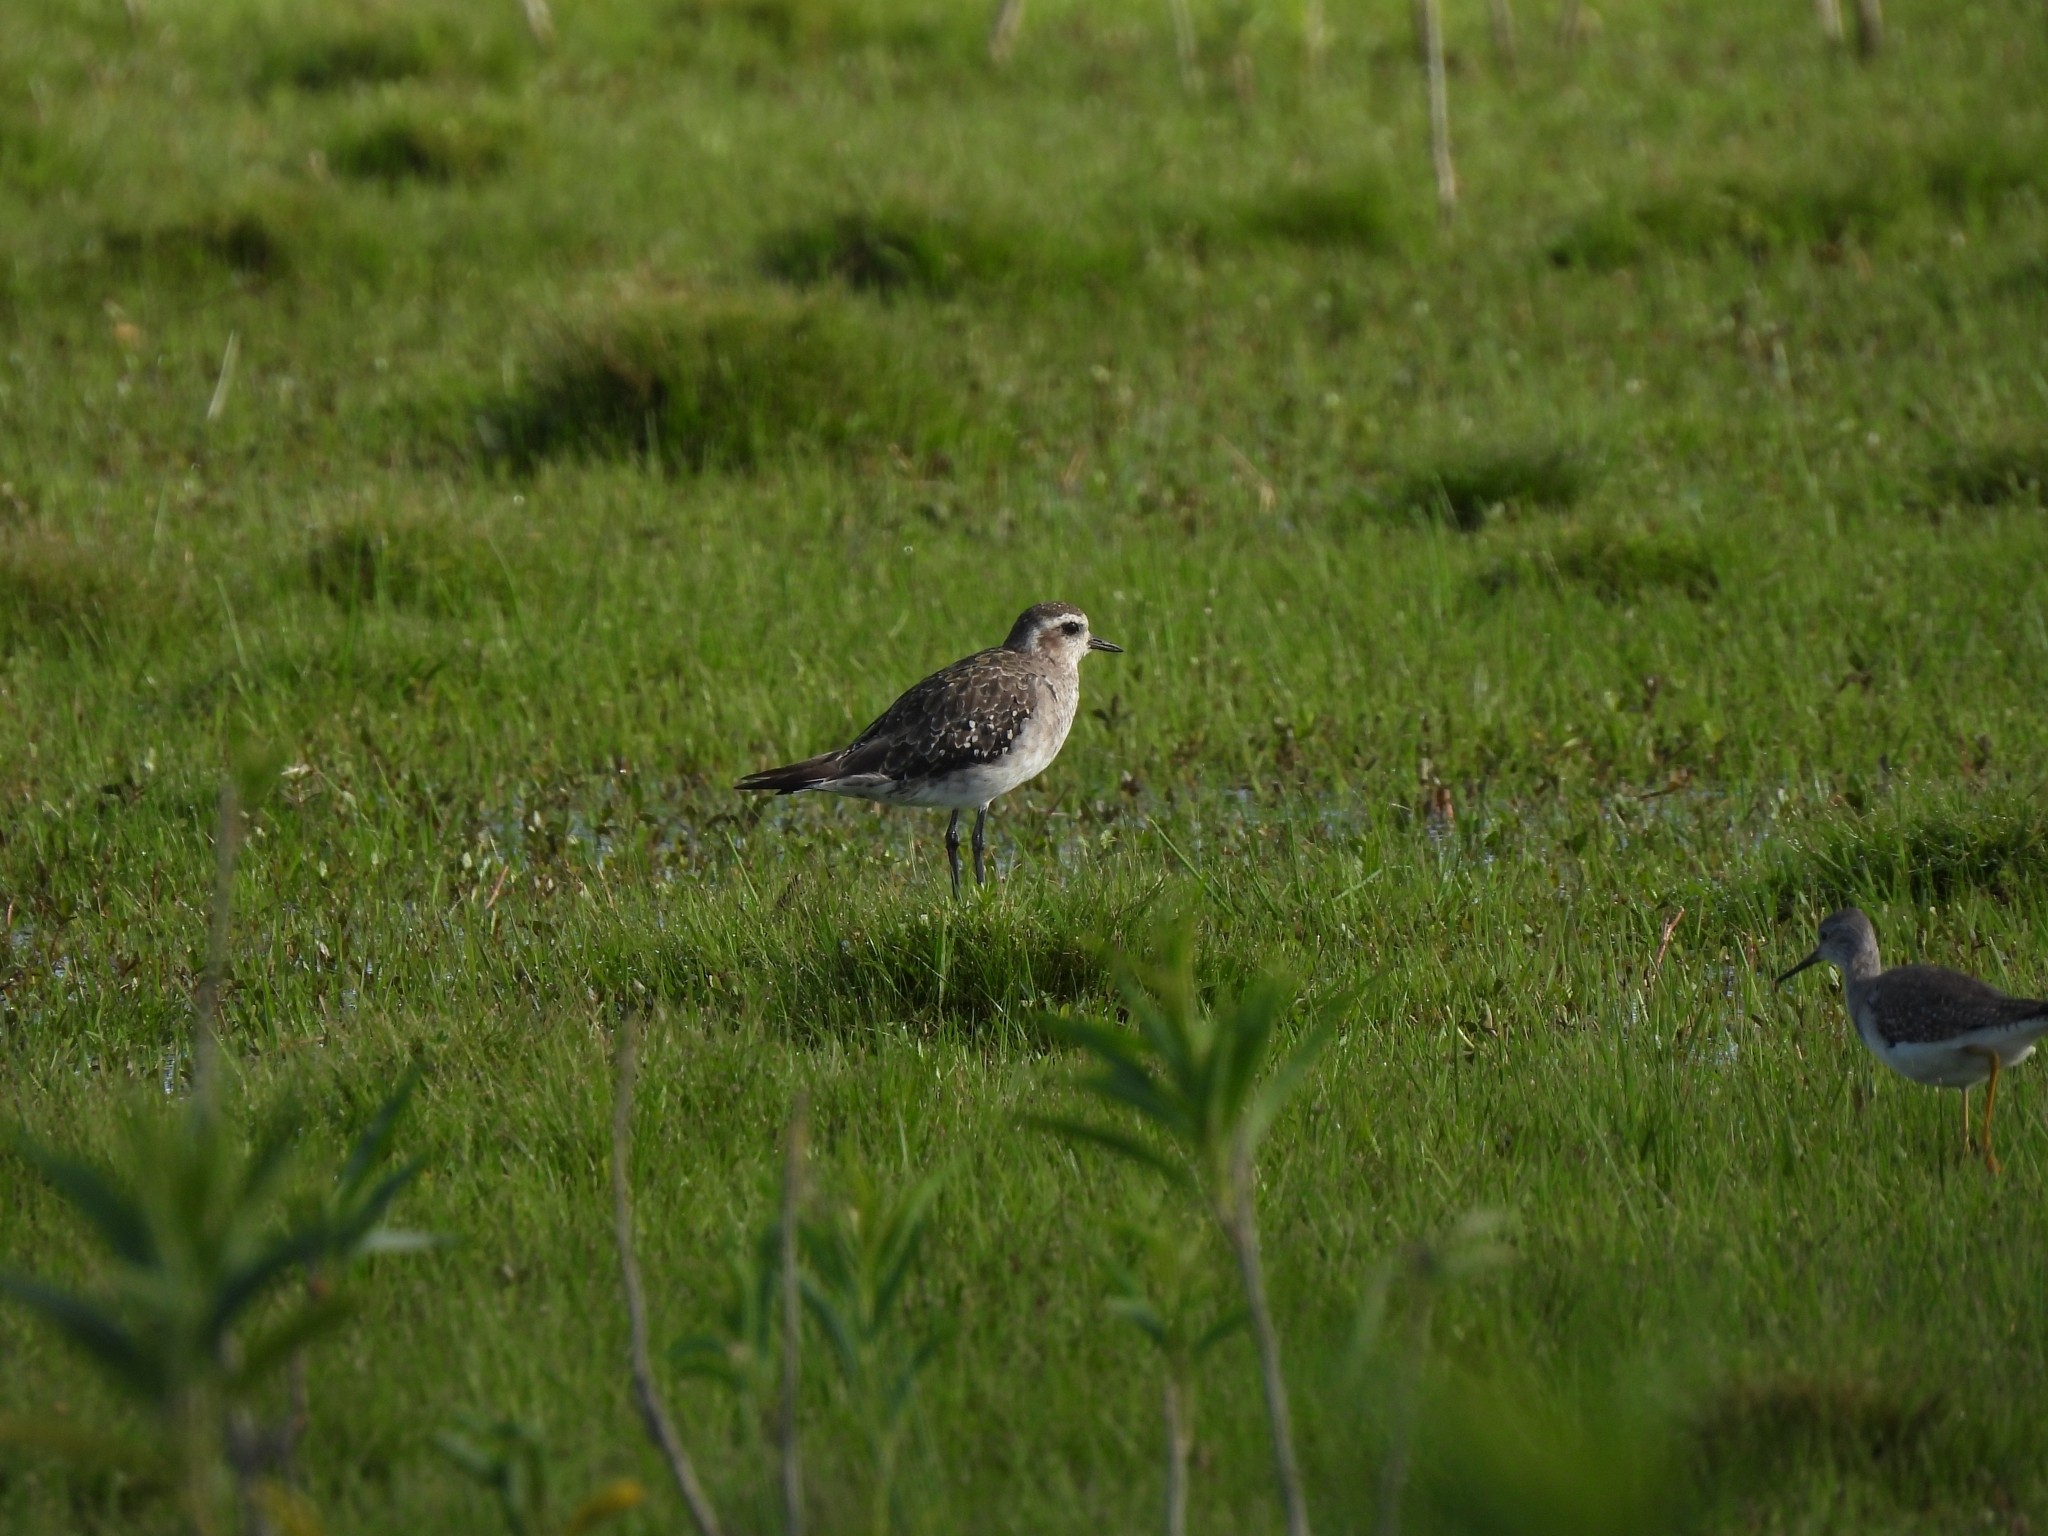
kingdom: Animalia
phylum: Chordata
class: Aves
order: Charadriiformes
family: Charadriidae
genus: Pluvialis
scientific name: Pluvialis dominica
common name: American golden plover
